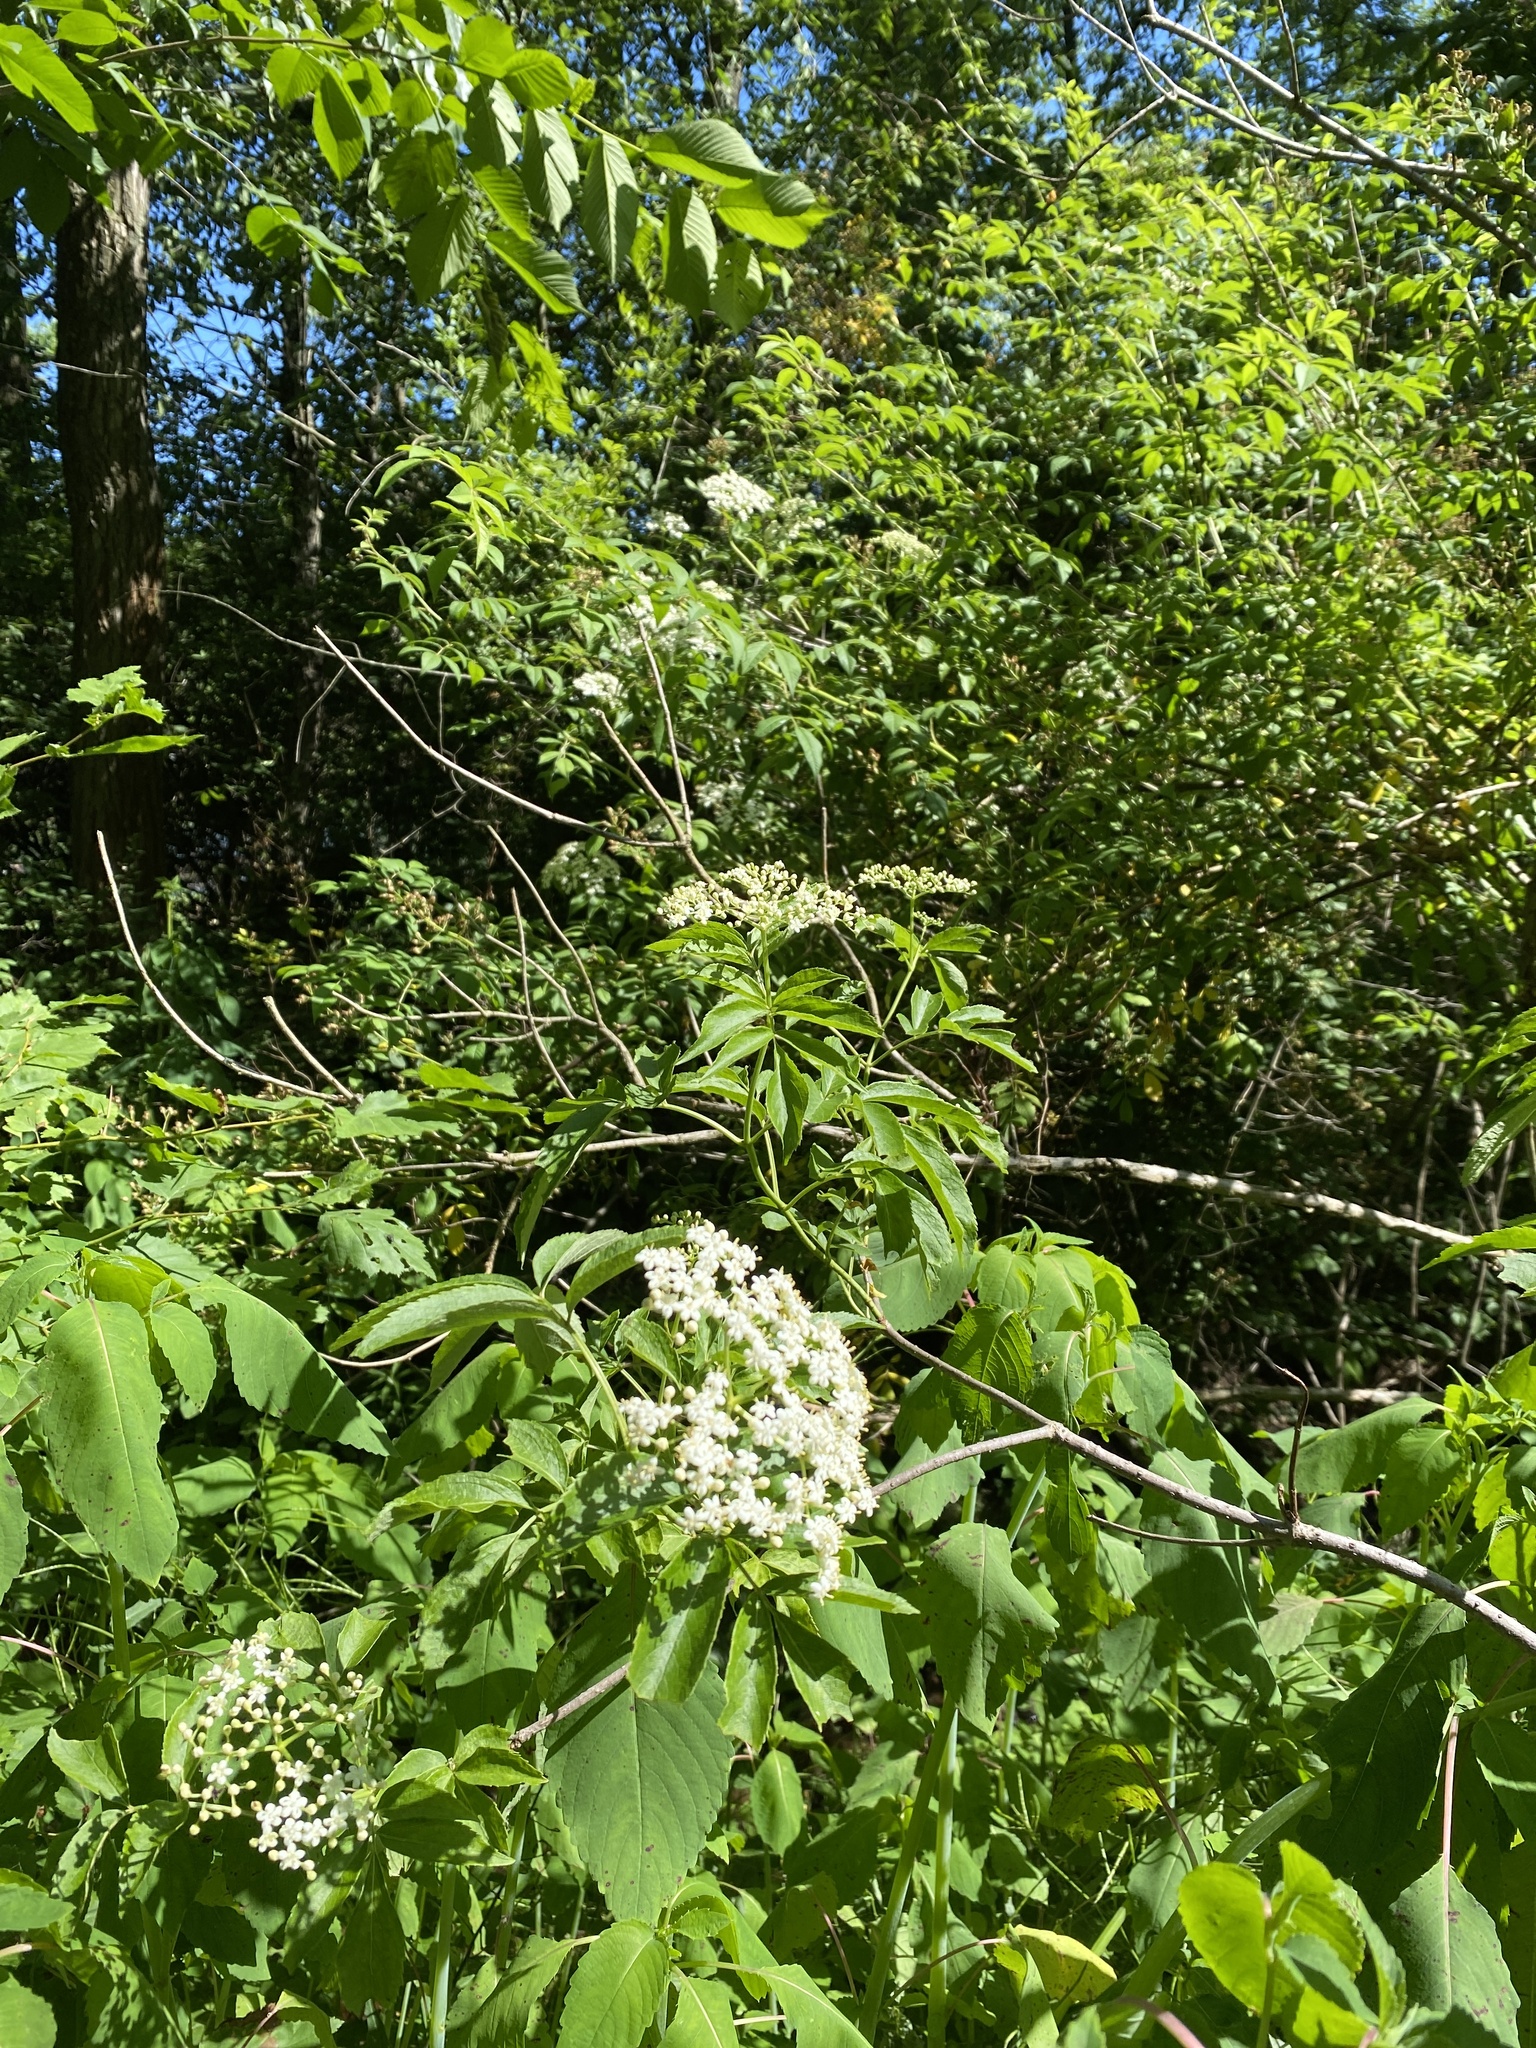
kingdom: Plantae
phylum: Tracheophyta
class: Magnoliopsida
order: Dipsacales
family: Viburnaceae
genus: Sambucus
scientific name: Sambucus canadensis
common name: American elder
